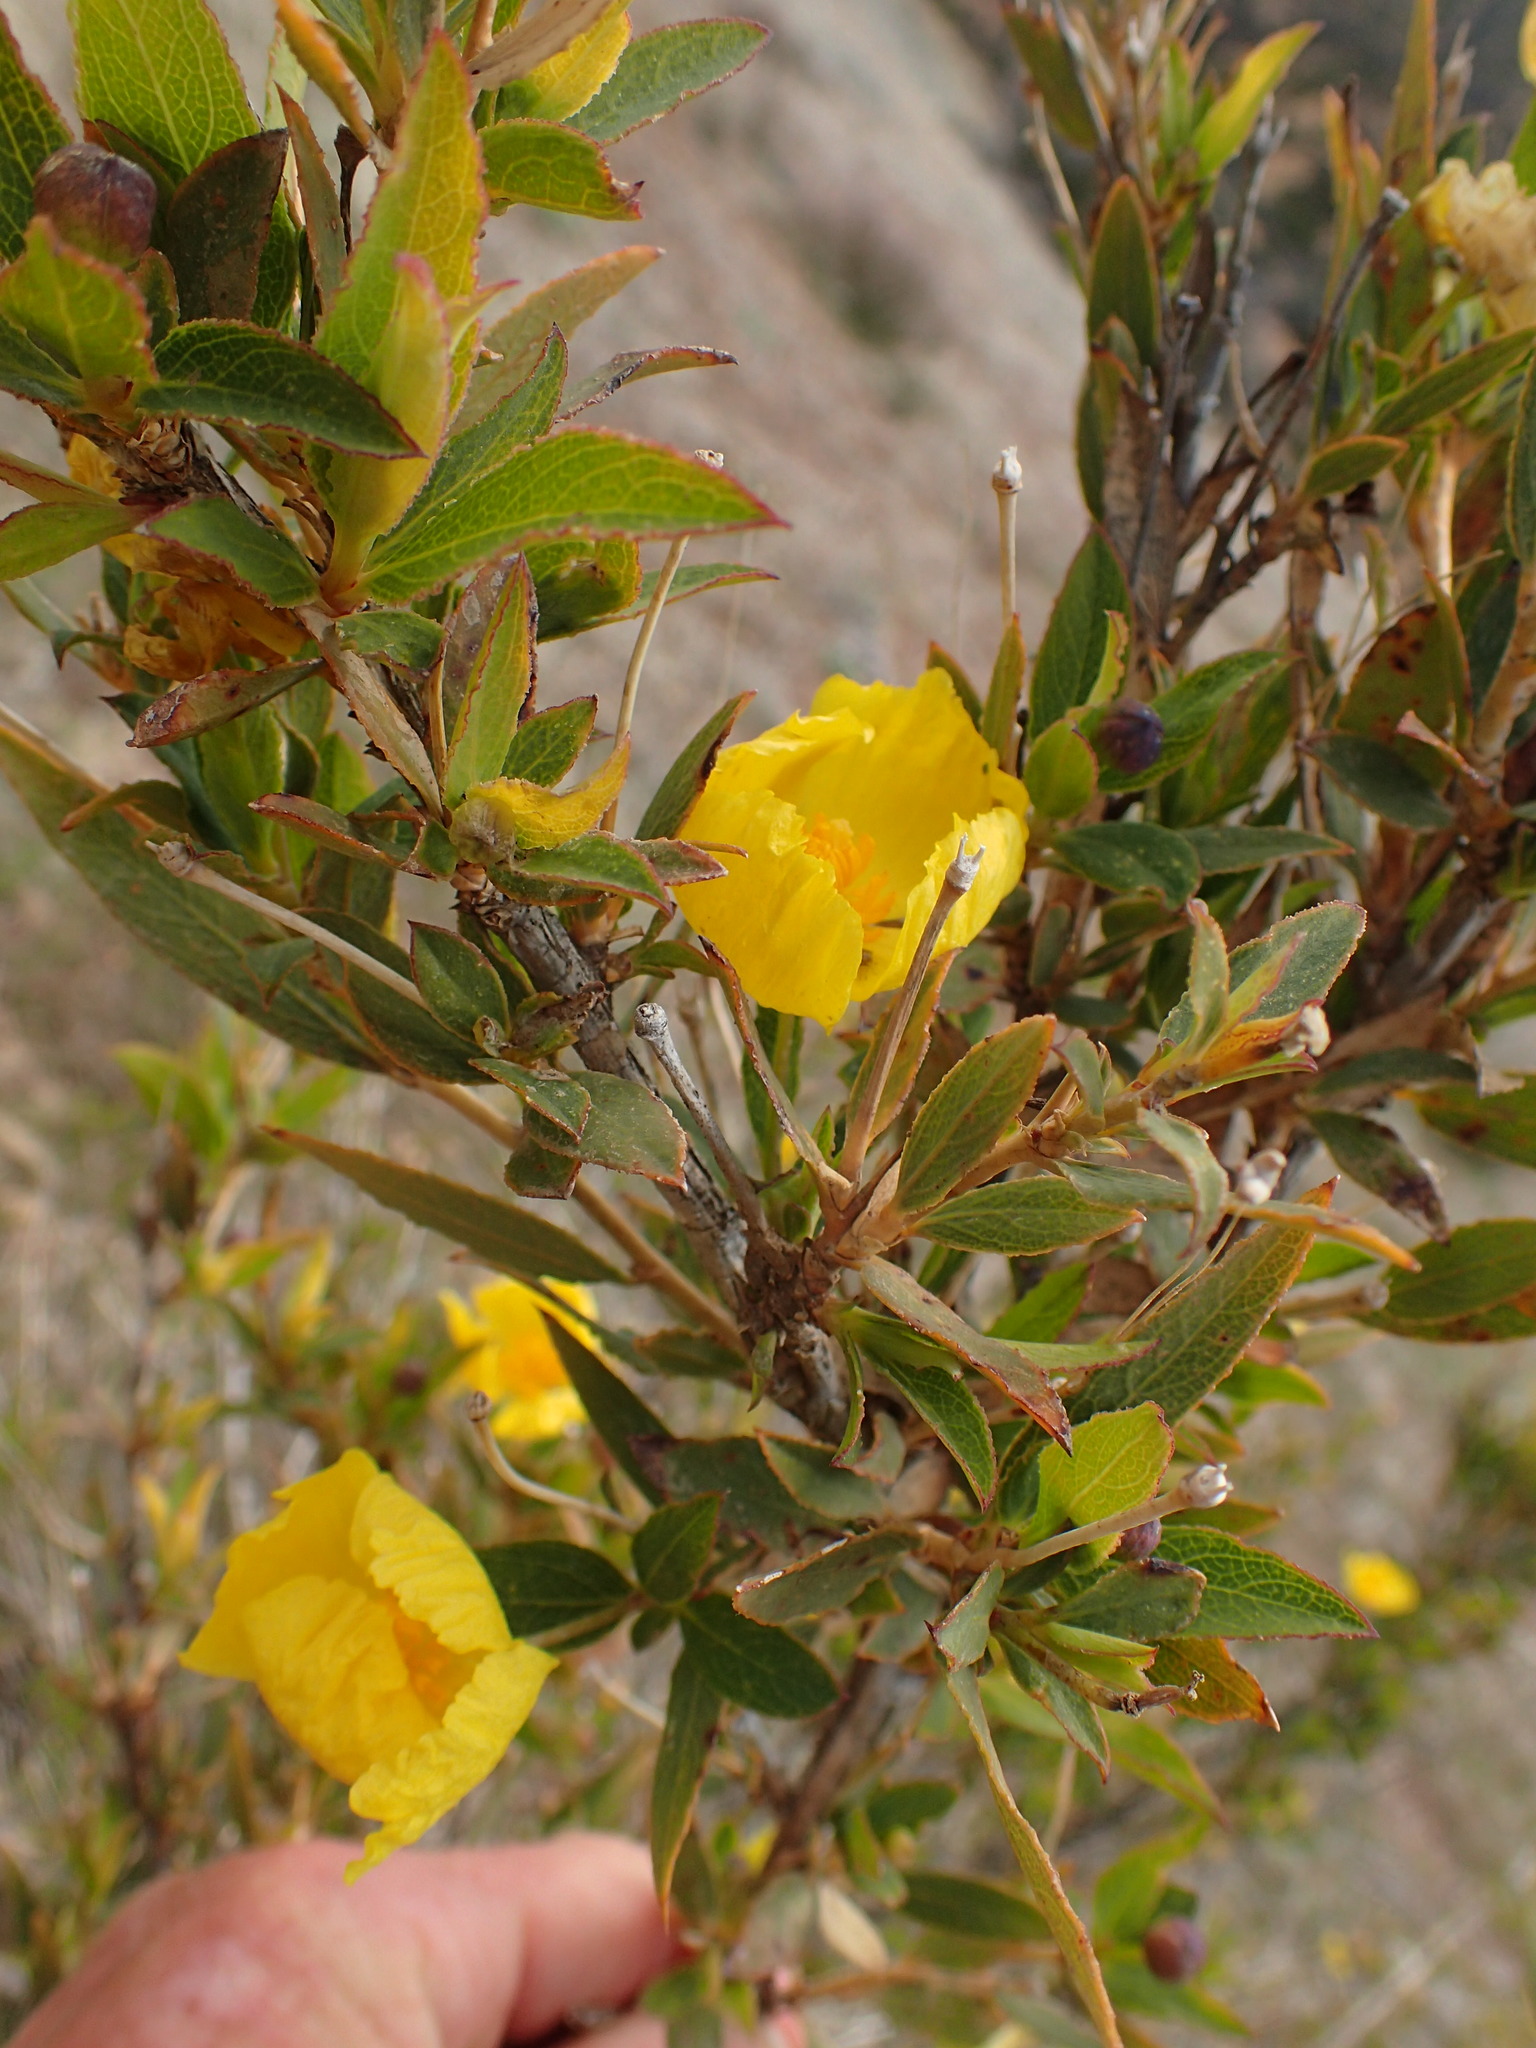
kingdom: Plantae
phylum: Tracheophyta
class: Magnoliopsida
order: Ranunculales
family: Papaveraceae
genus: Dendromecon
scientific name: Dendromecon rigida
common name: Tree poppy
